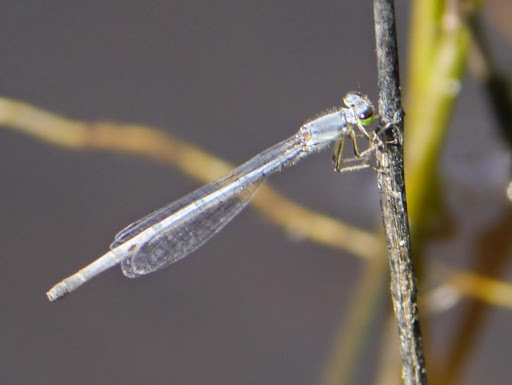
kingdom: Animalia
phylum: Arthropoda
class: Insecta
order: Odonata
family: Coenagrionidae
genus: Ischnura
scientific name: Ischnura posita
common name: Fragile forktail
